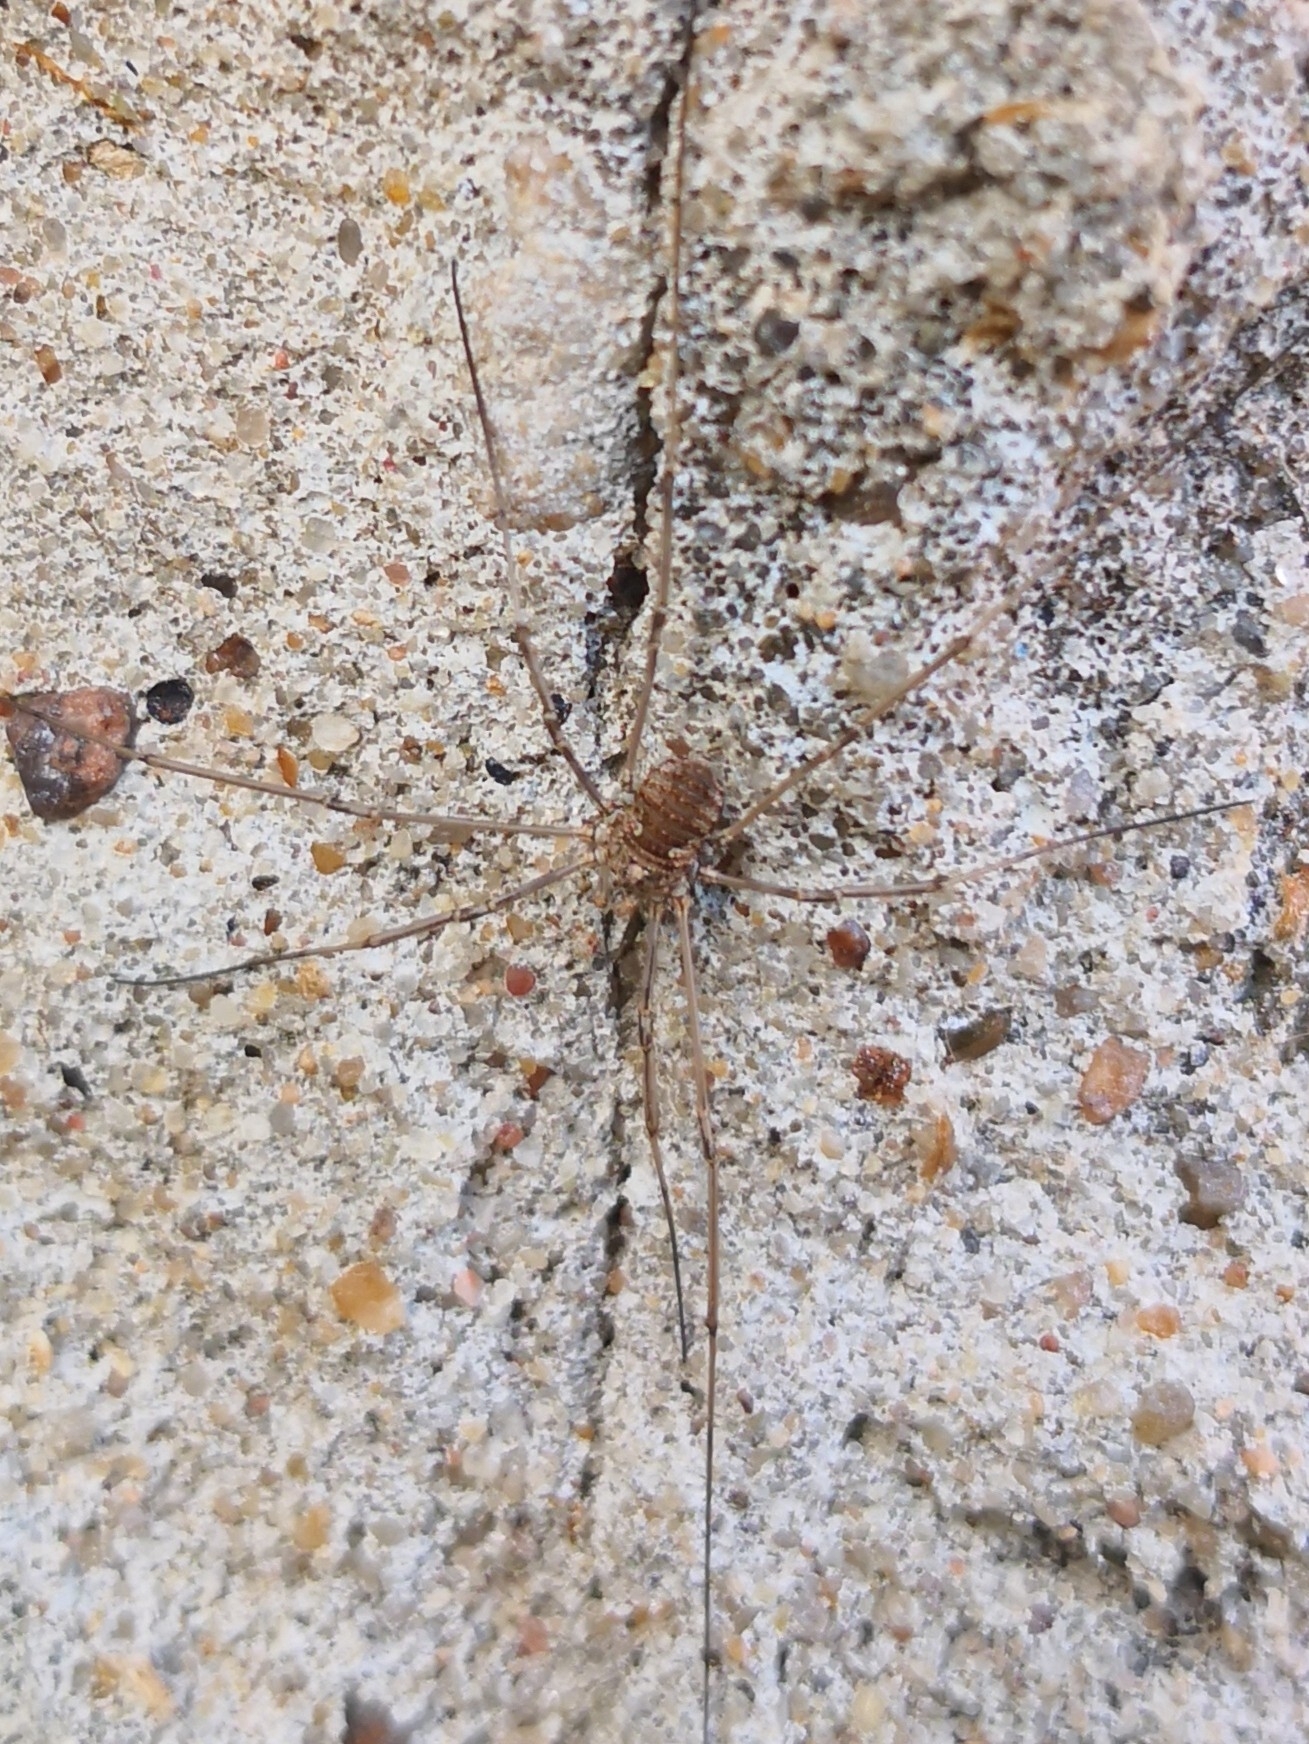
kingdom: Animalia
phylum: Arthropoda
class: Arachnida
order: Opiliones
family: Phalangiidae
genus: Phalangium
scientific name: Phalangium opilio
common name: Daddy longleg
